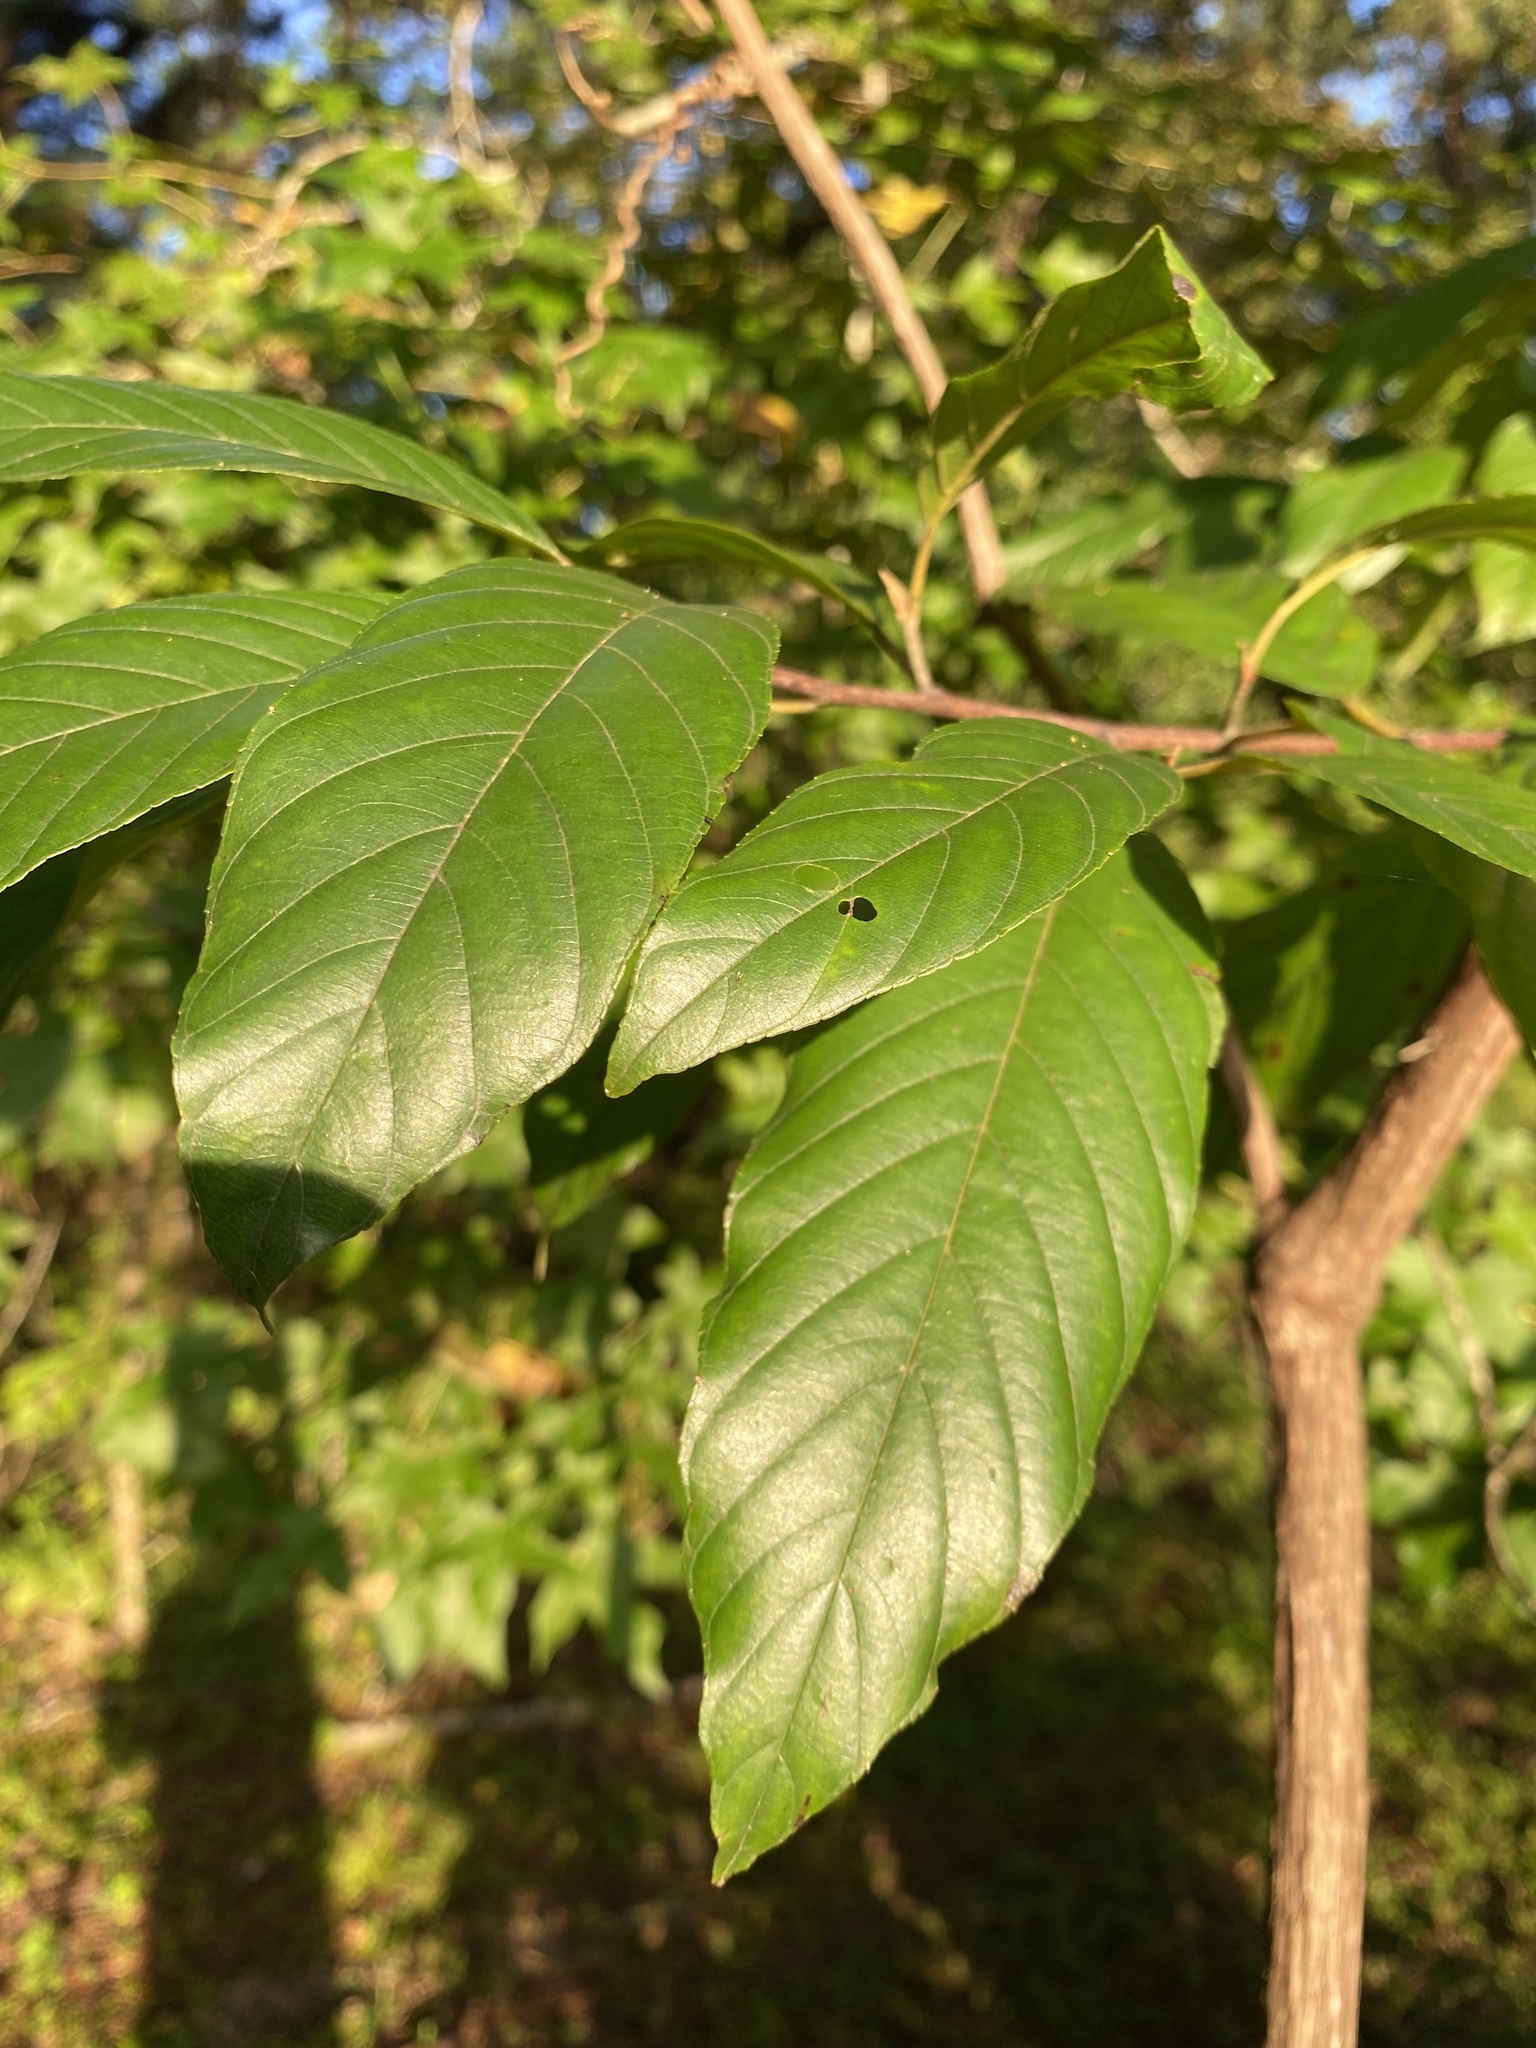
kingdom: Plantae
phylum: Tracheophyta
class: Magnoliopsida
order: Rosales
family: Rhamnaceae
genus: Frangula
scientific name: Frangula caroliniana
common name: Carolina buckthorn
